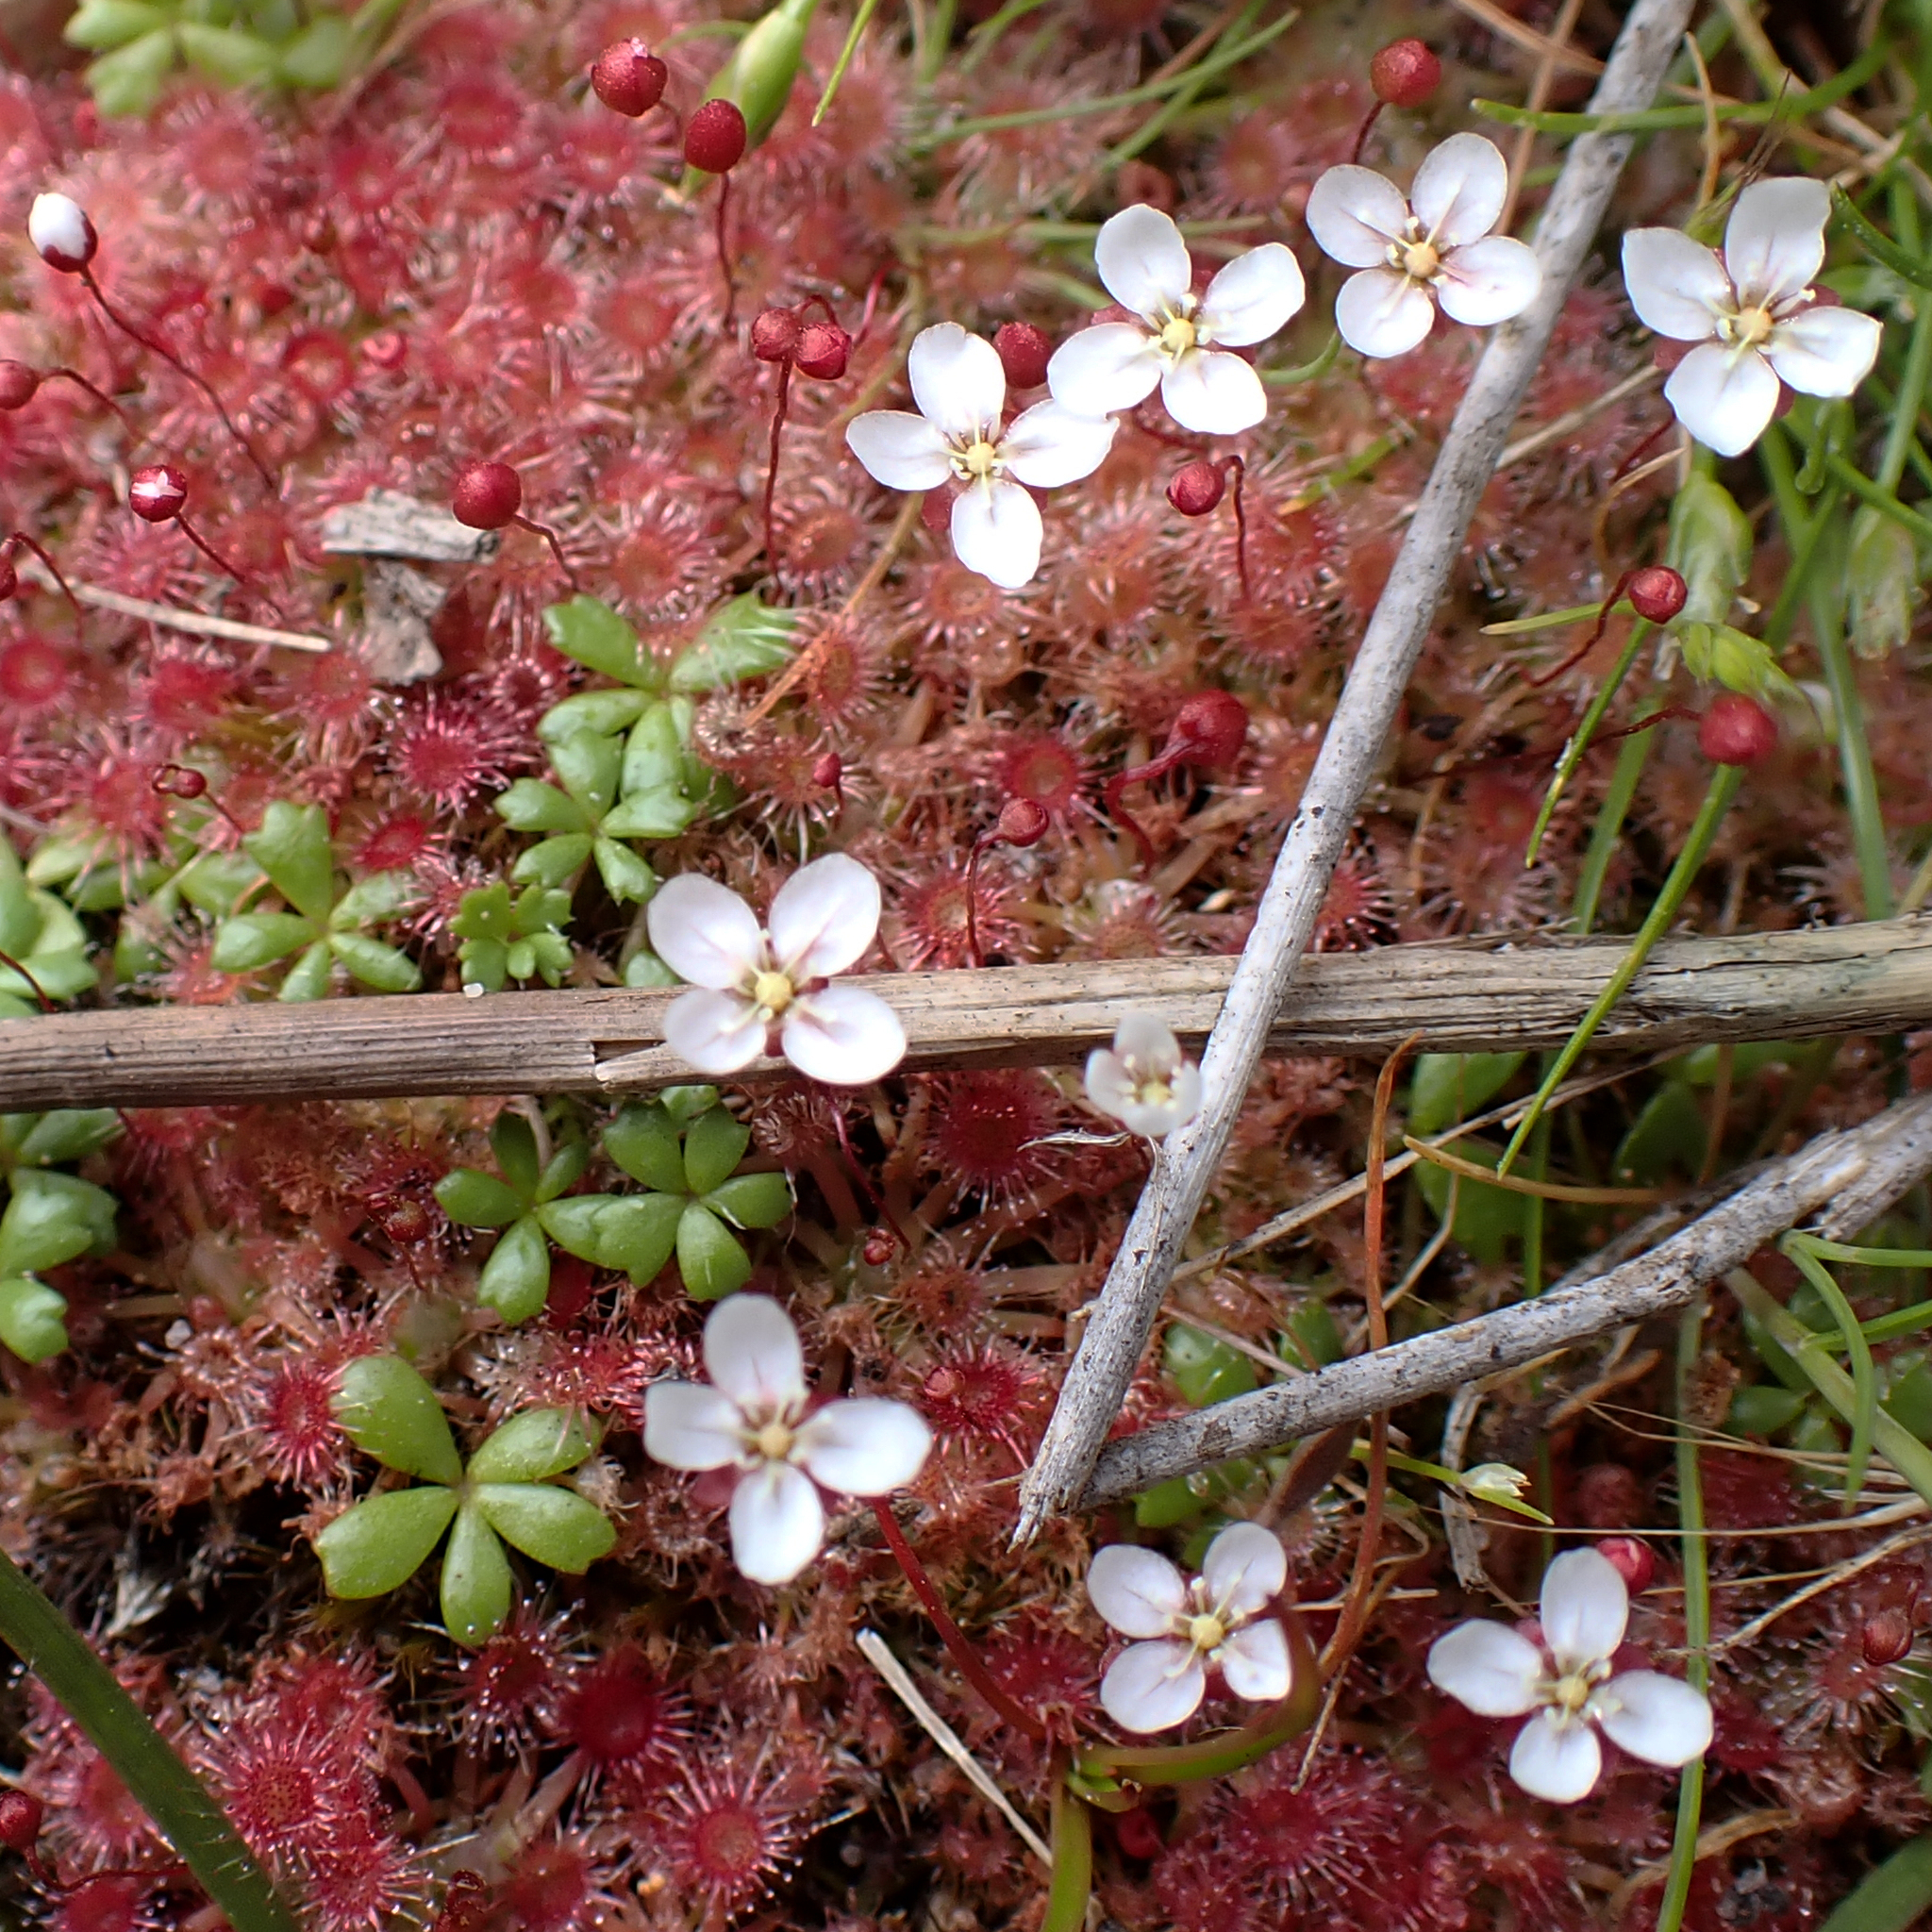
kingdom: Plantae
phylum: Tracheophyta
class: Magnoliopsida
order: Caryophyllales
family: Droseraceae
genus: Drosera
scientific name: Drosera pygmaea
